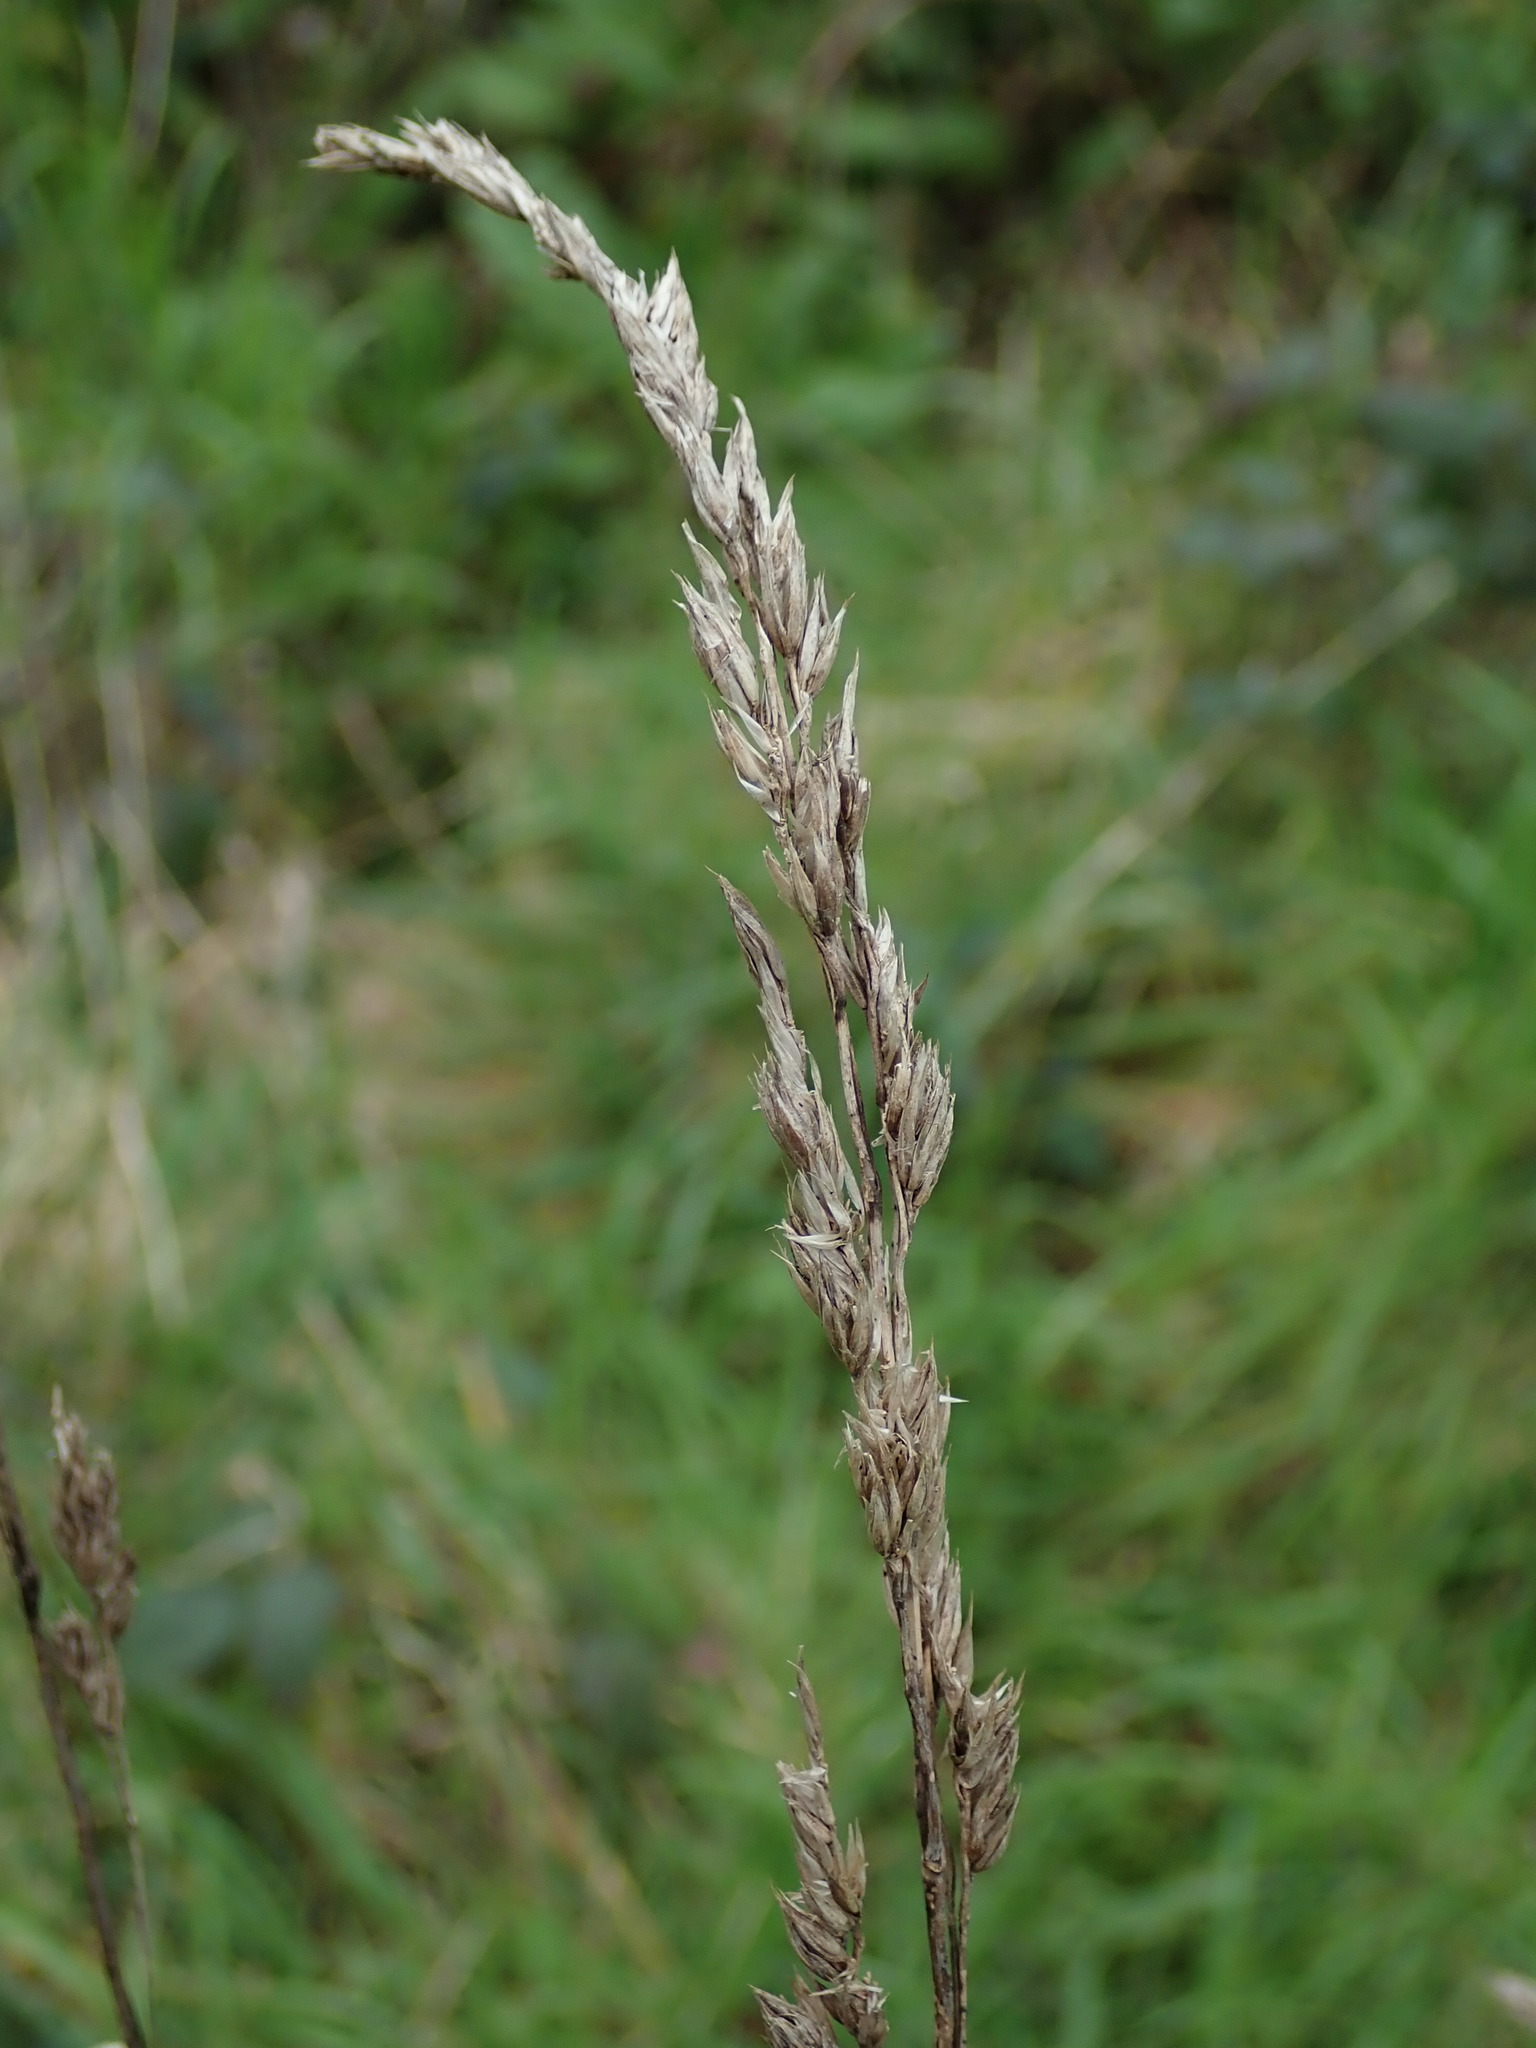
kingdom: Plantae
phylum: Tracheophyta
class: Liliopsida
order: Poales
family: Poaceae
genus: Dactylis
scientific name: Dactylis glomerata
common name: Orchardgrass
